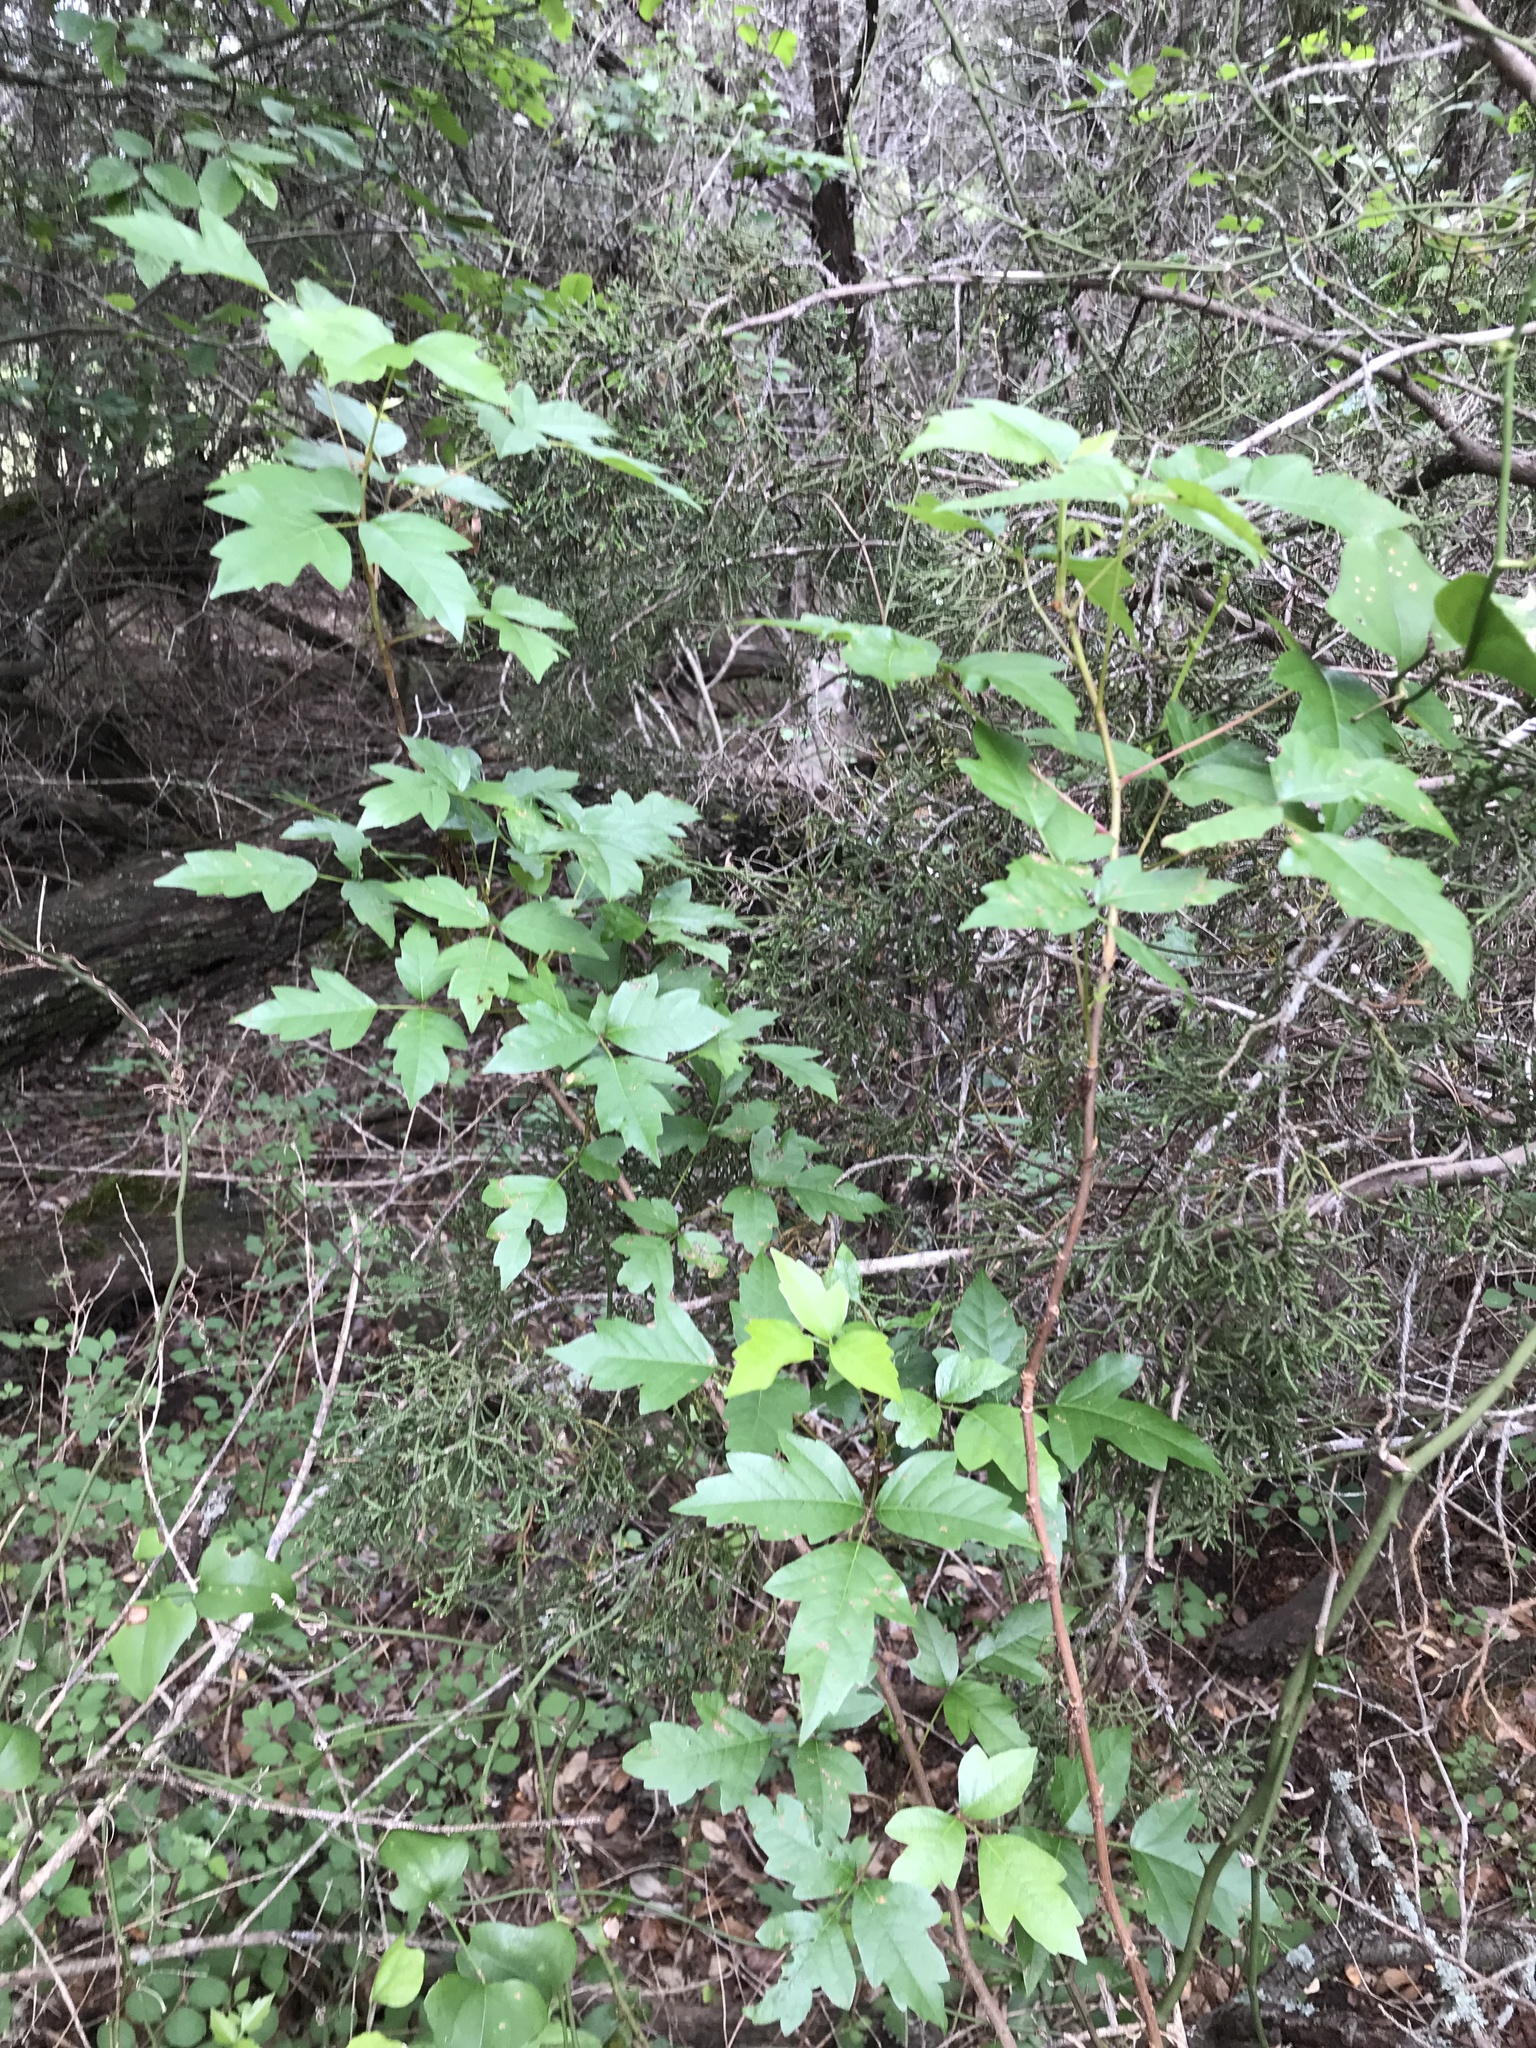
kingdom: Plantae
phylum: Tracheophyta
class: Magnoliopsida
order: Sapindales
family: Anacardiaceae
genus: Toxicodendron
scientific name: Toxicodendron radicans
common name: Poison ivy
